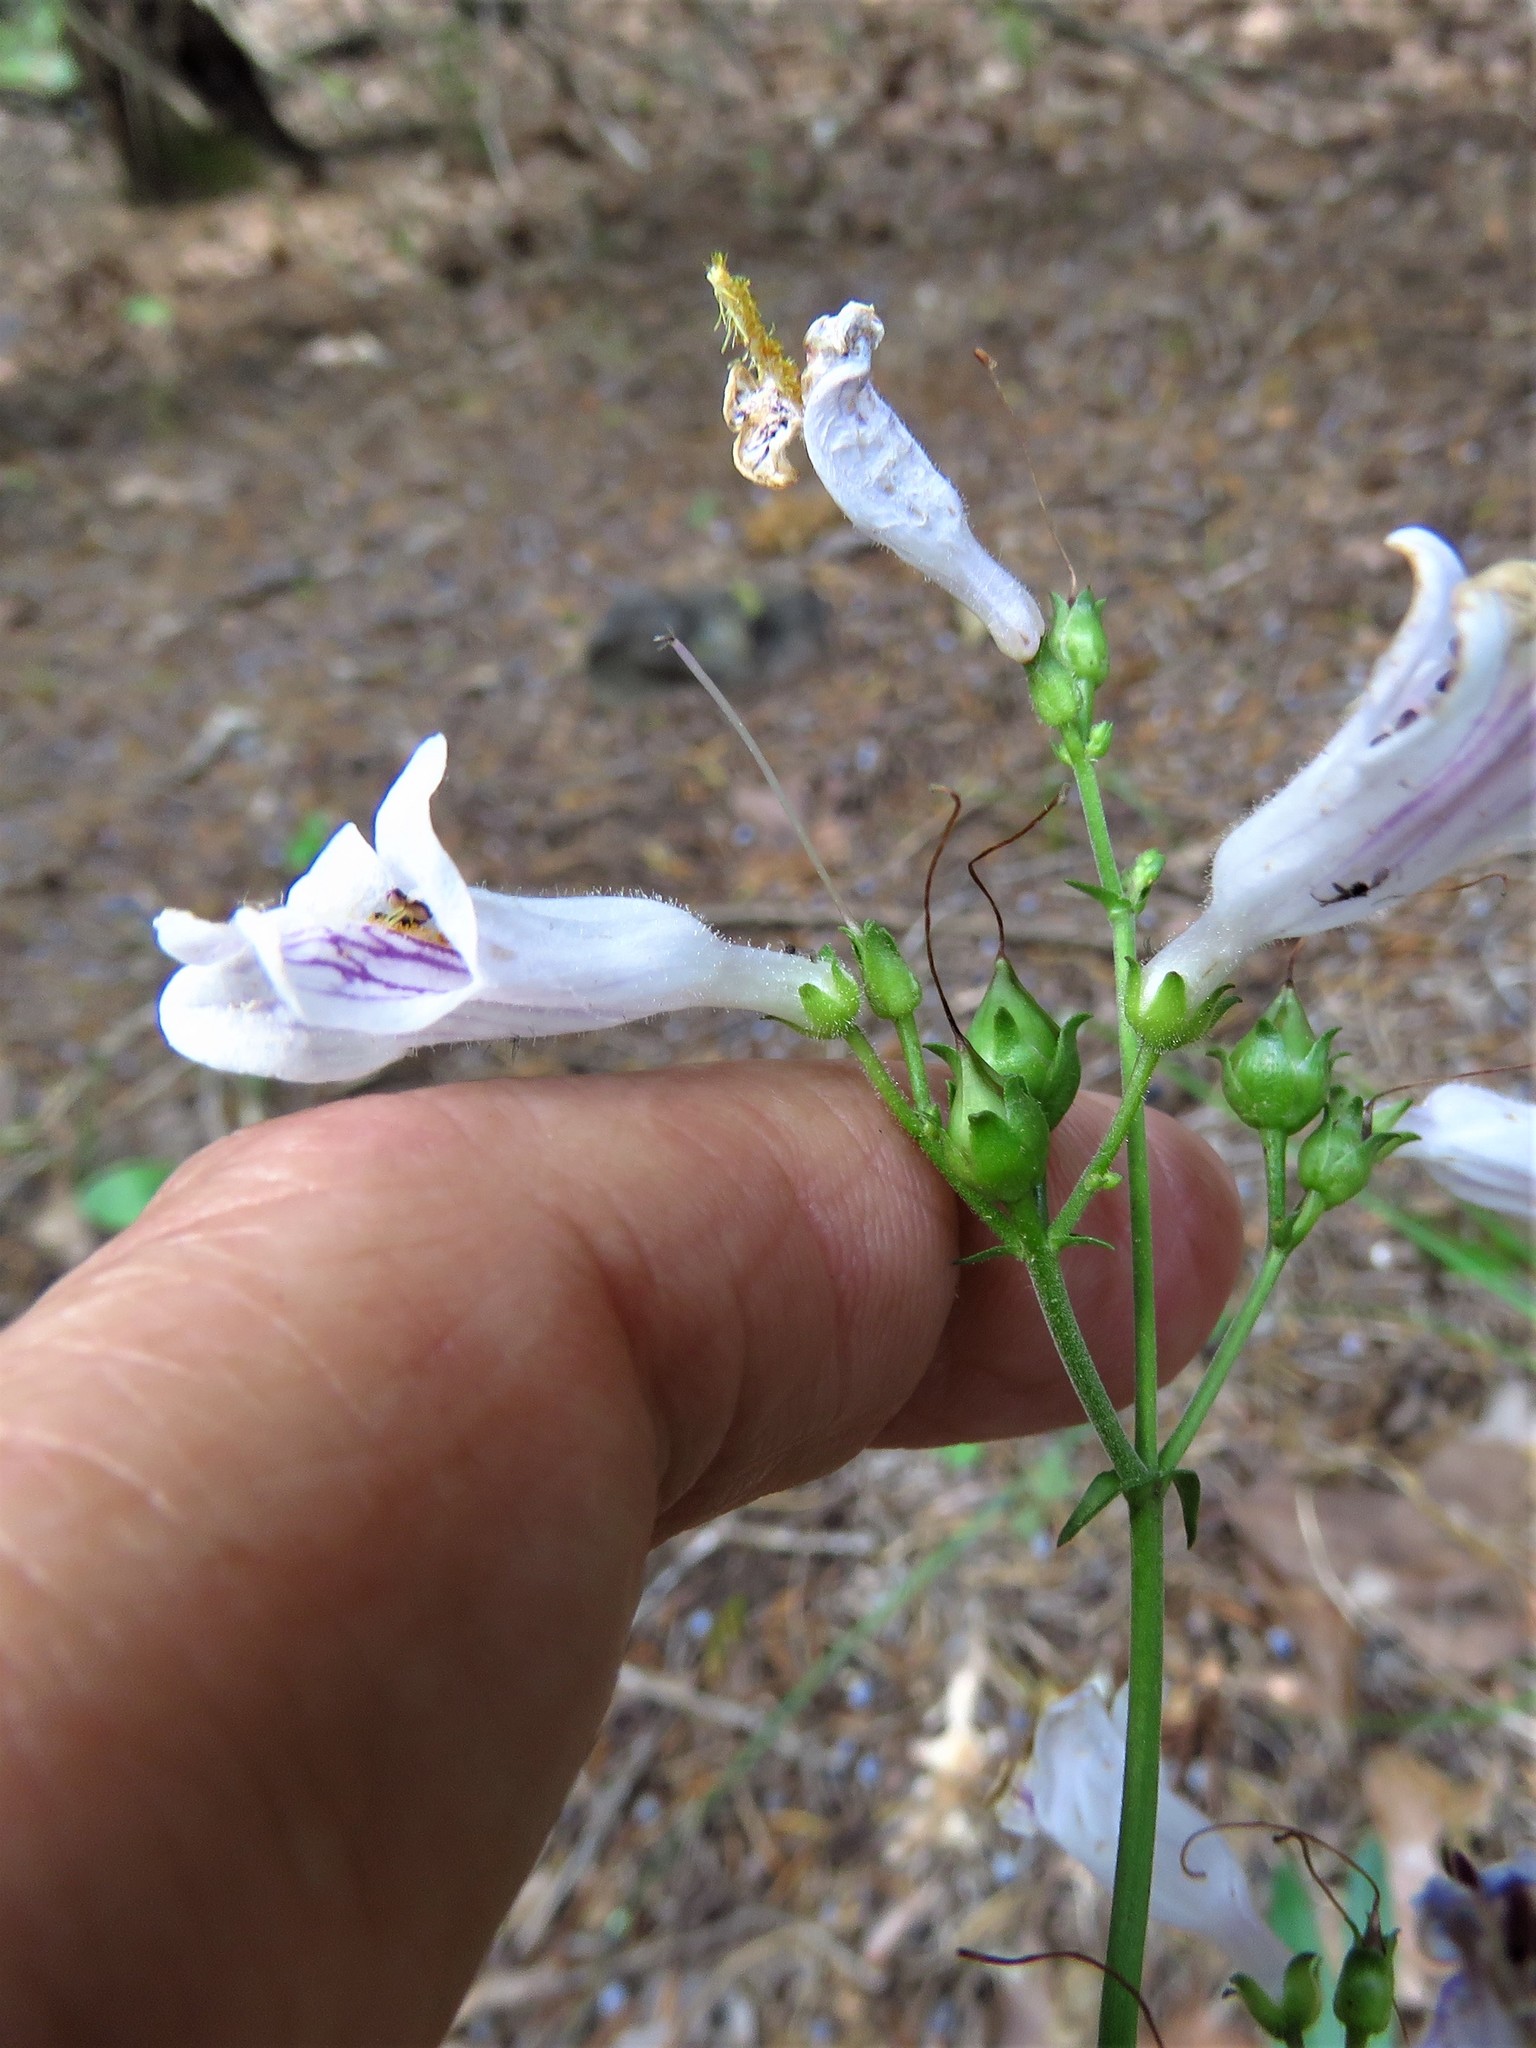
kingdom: Plantae
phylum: Tracheophyta
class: Magnoliopsida
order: Lamiales
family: Plantaginaceae
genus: Penstemon
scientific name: Penstemon laxiflorus
